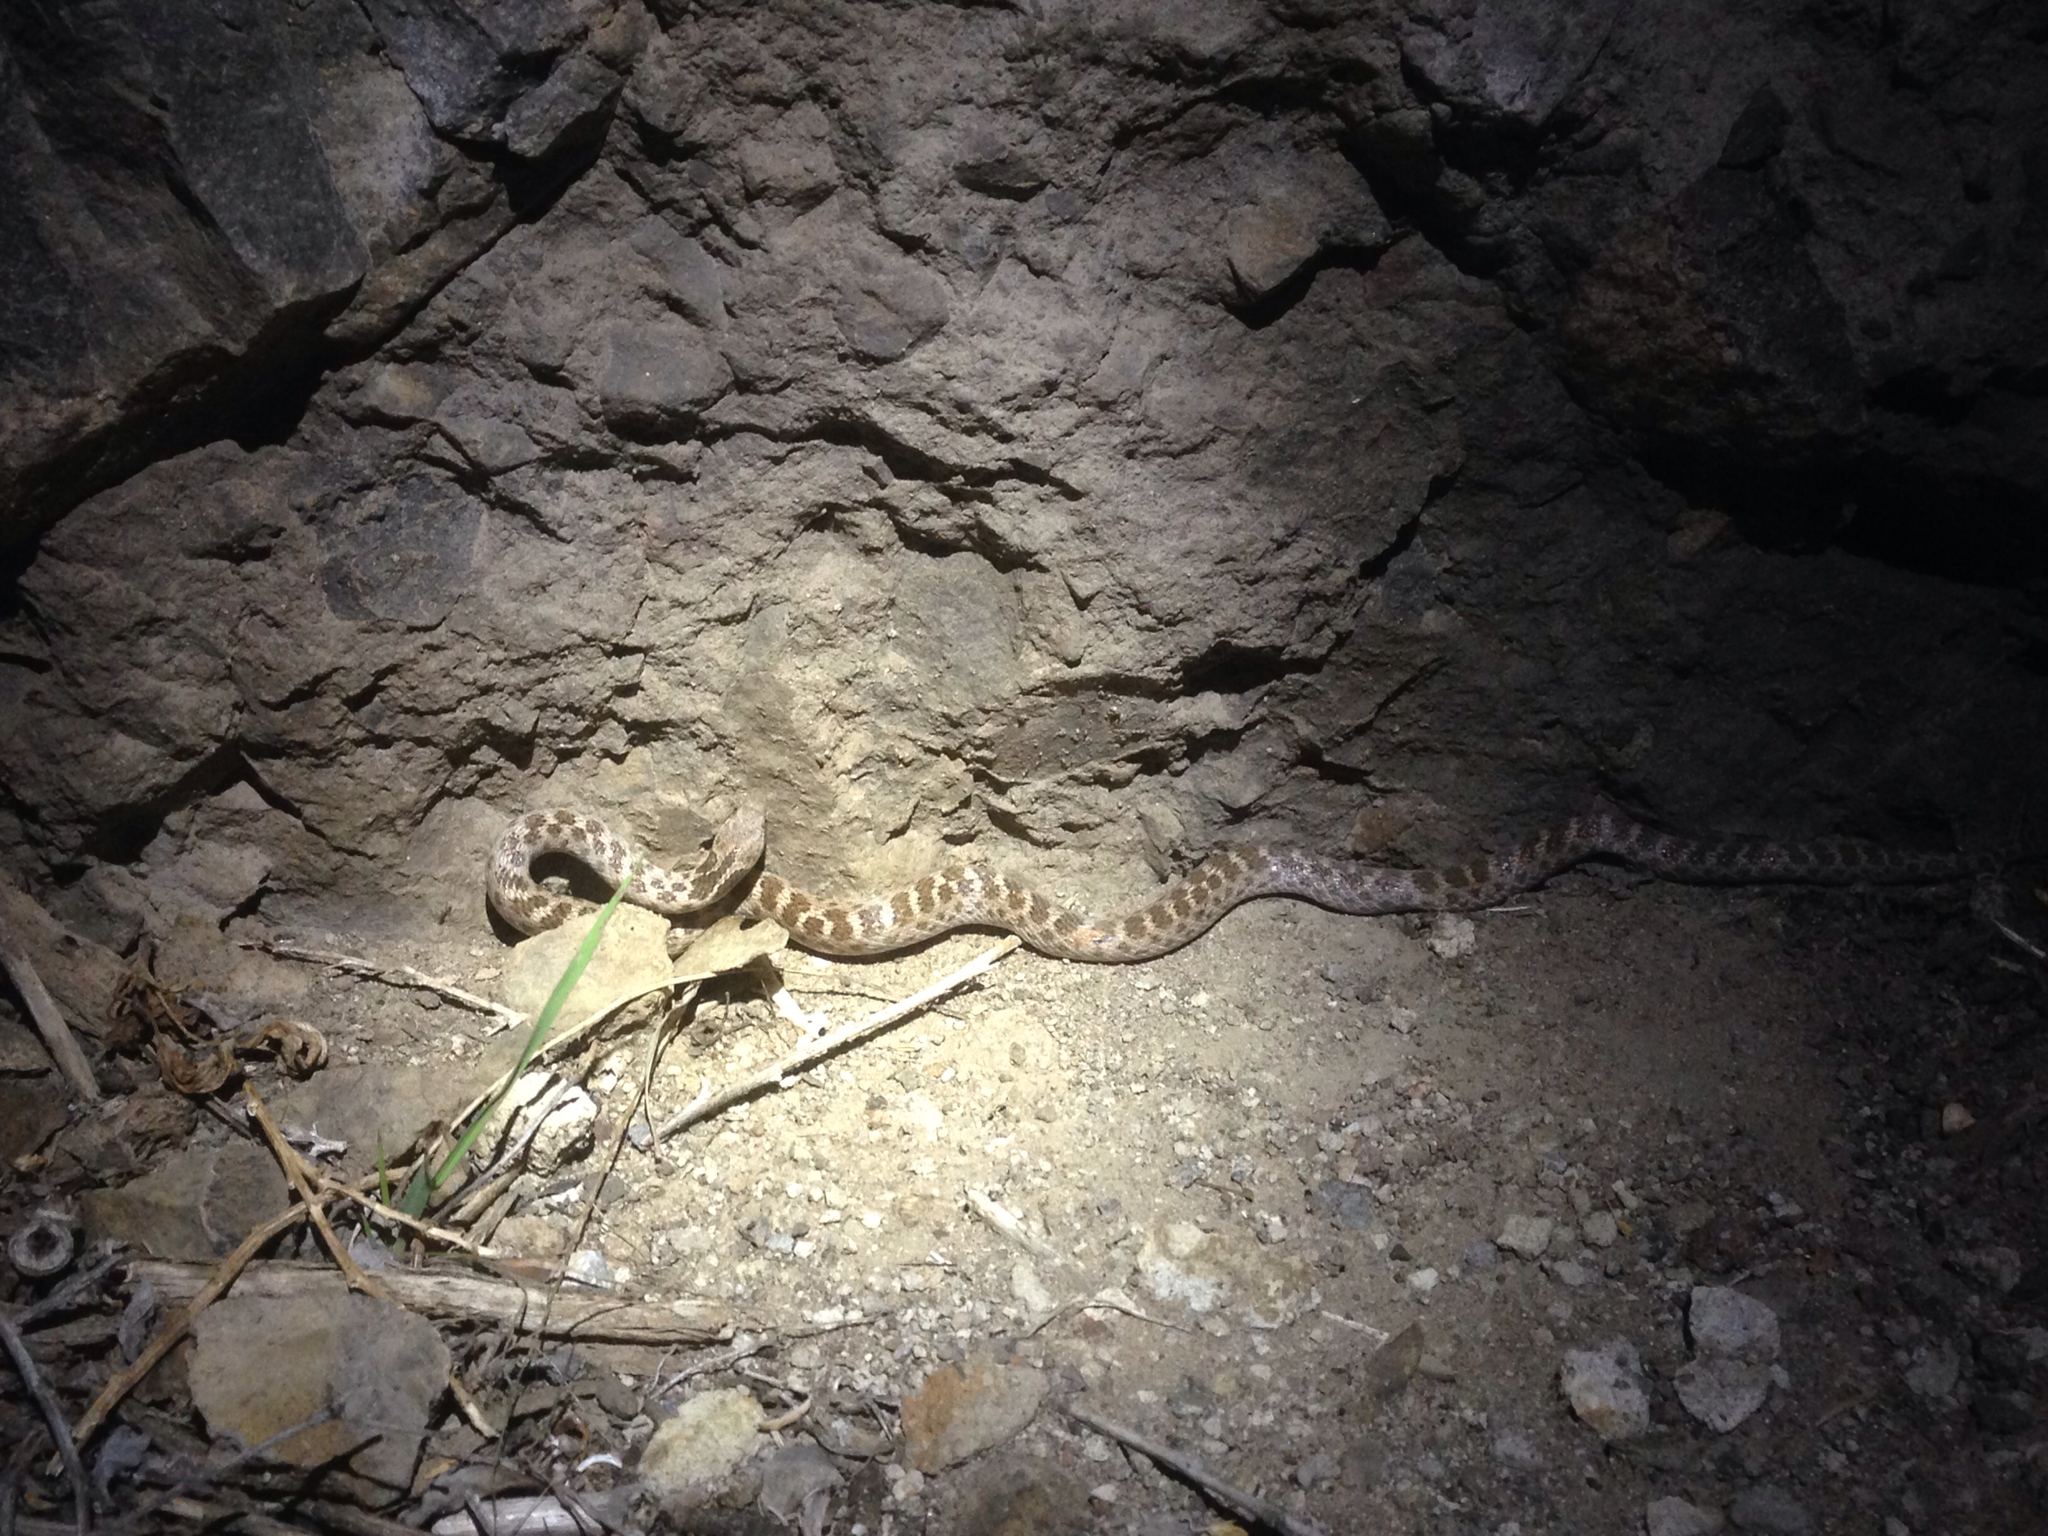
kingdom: Animalia
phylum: Chordata
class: Squamata
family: Colubridae
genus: Hypsiglena
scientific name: Hypsiglena ochrorhynchus
